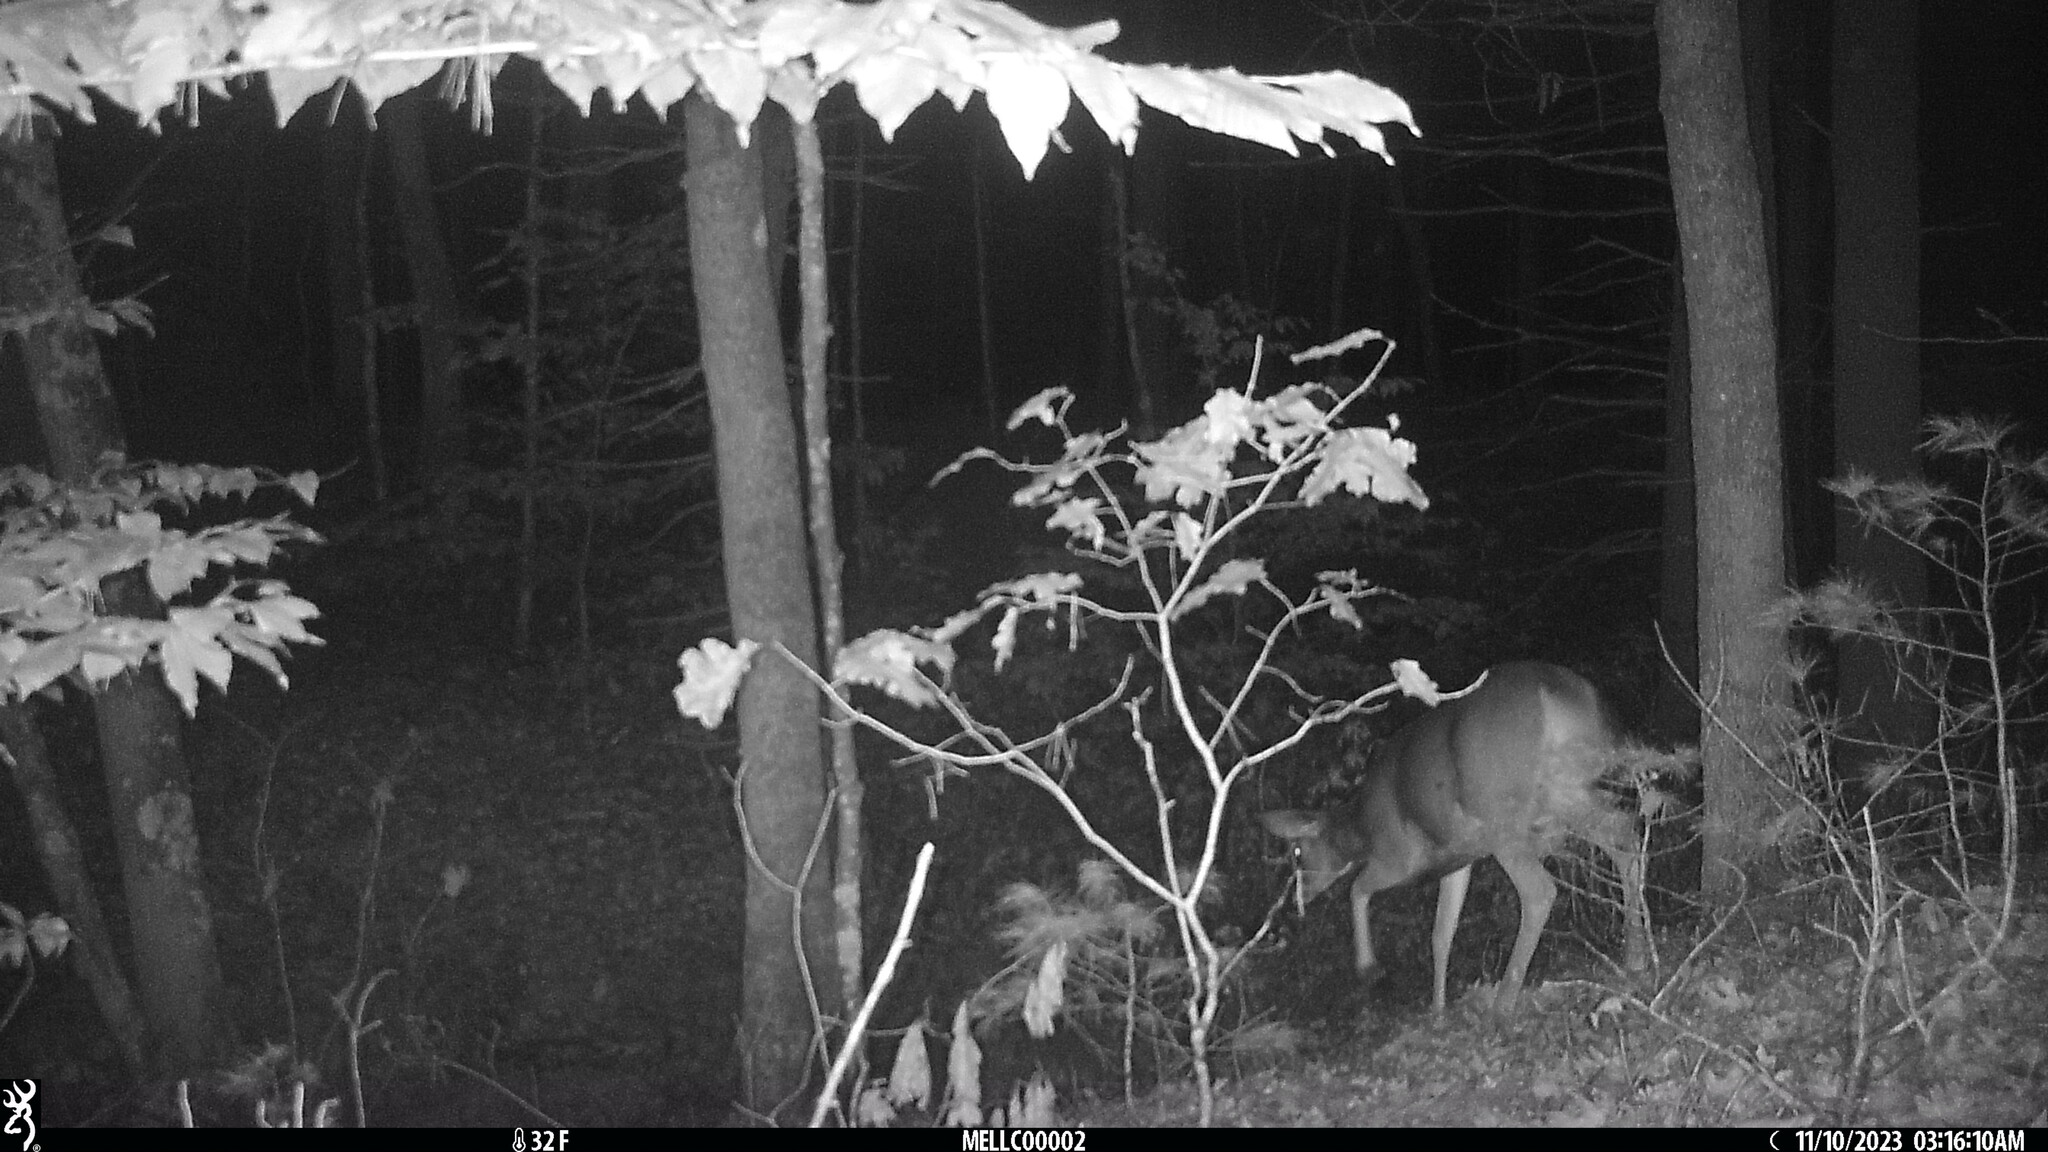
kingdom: Animalia
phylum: Chordata
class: Mammalia
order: Artiodactyla
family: Cervidae
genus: Odocoileus
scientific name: Odocoileus virginianus
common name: White-tailed deer
